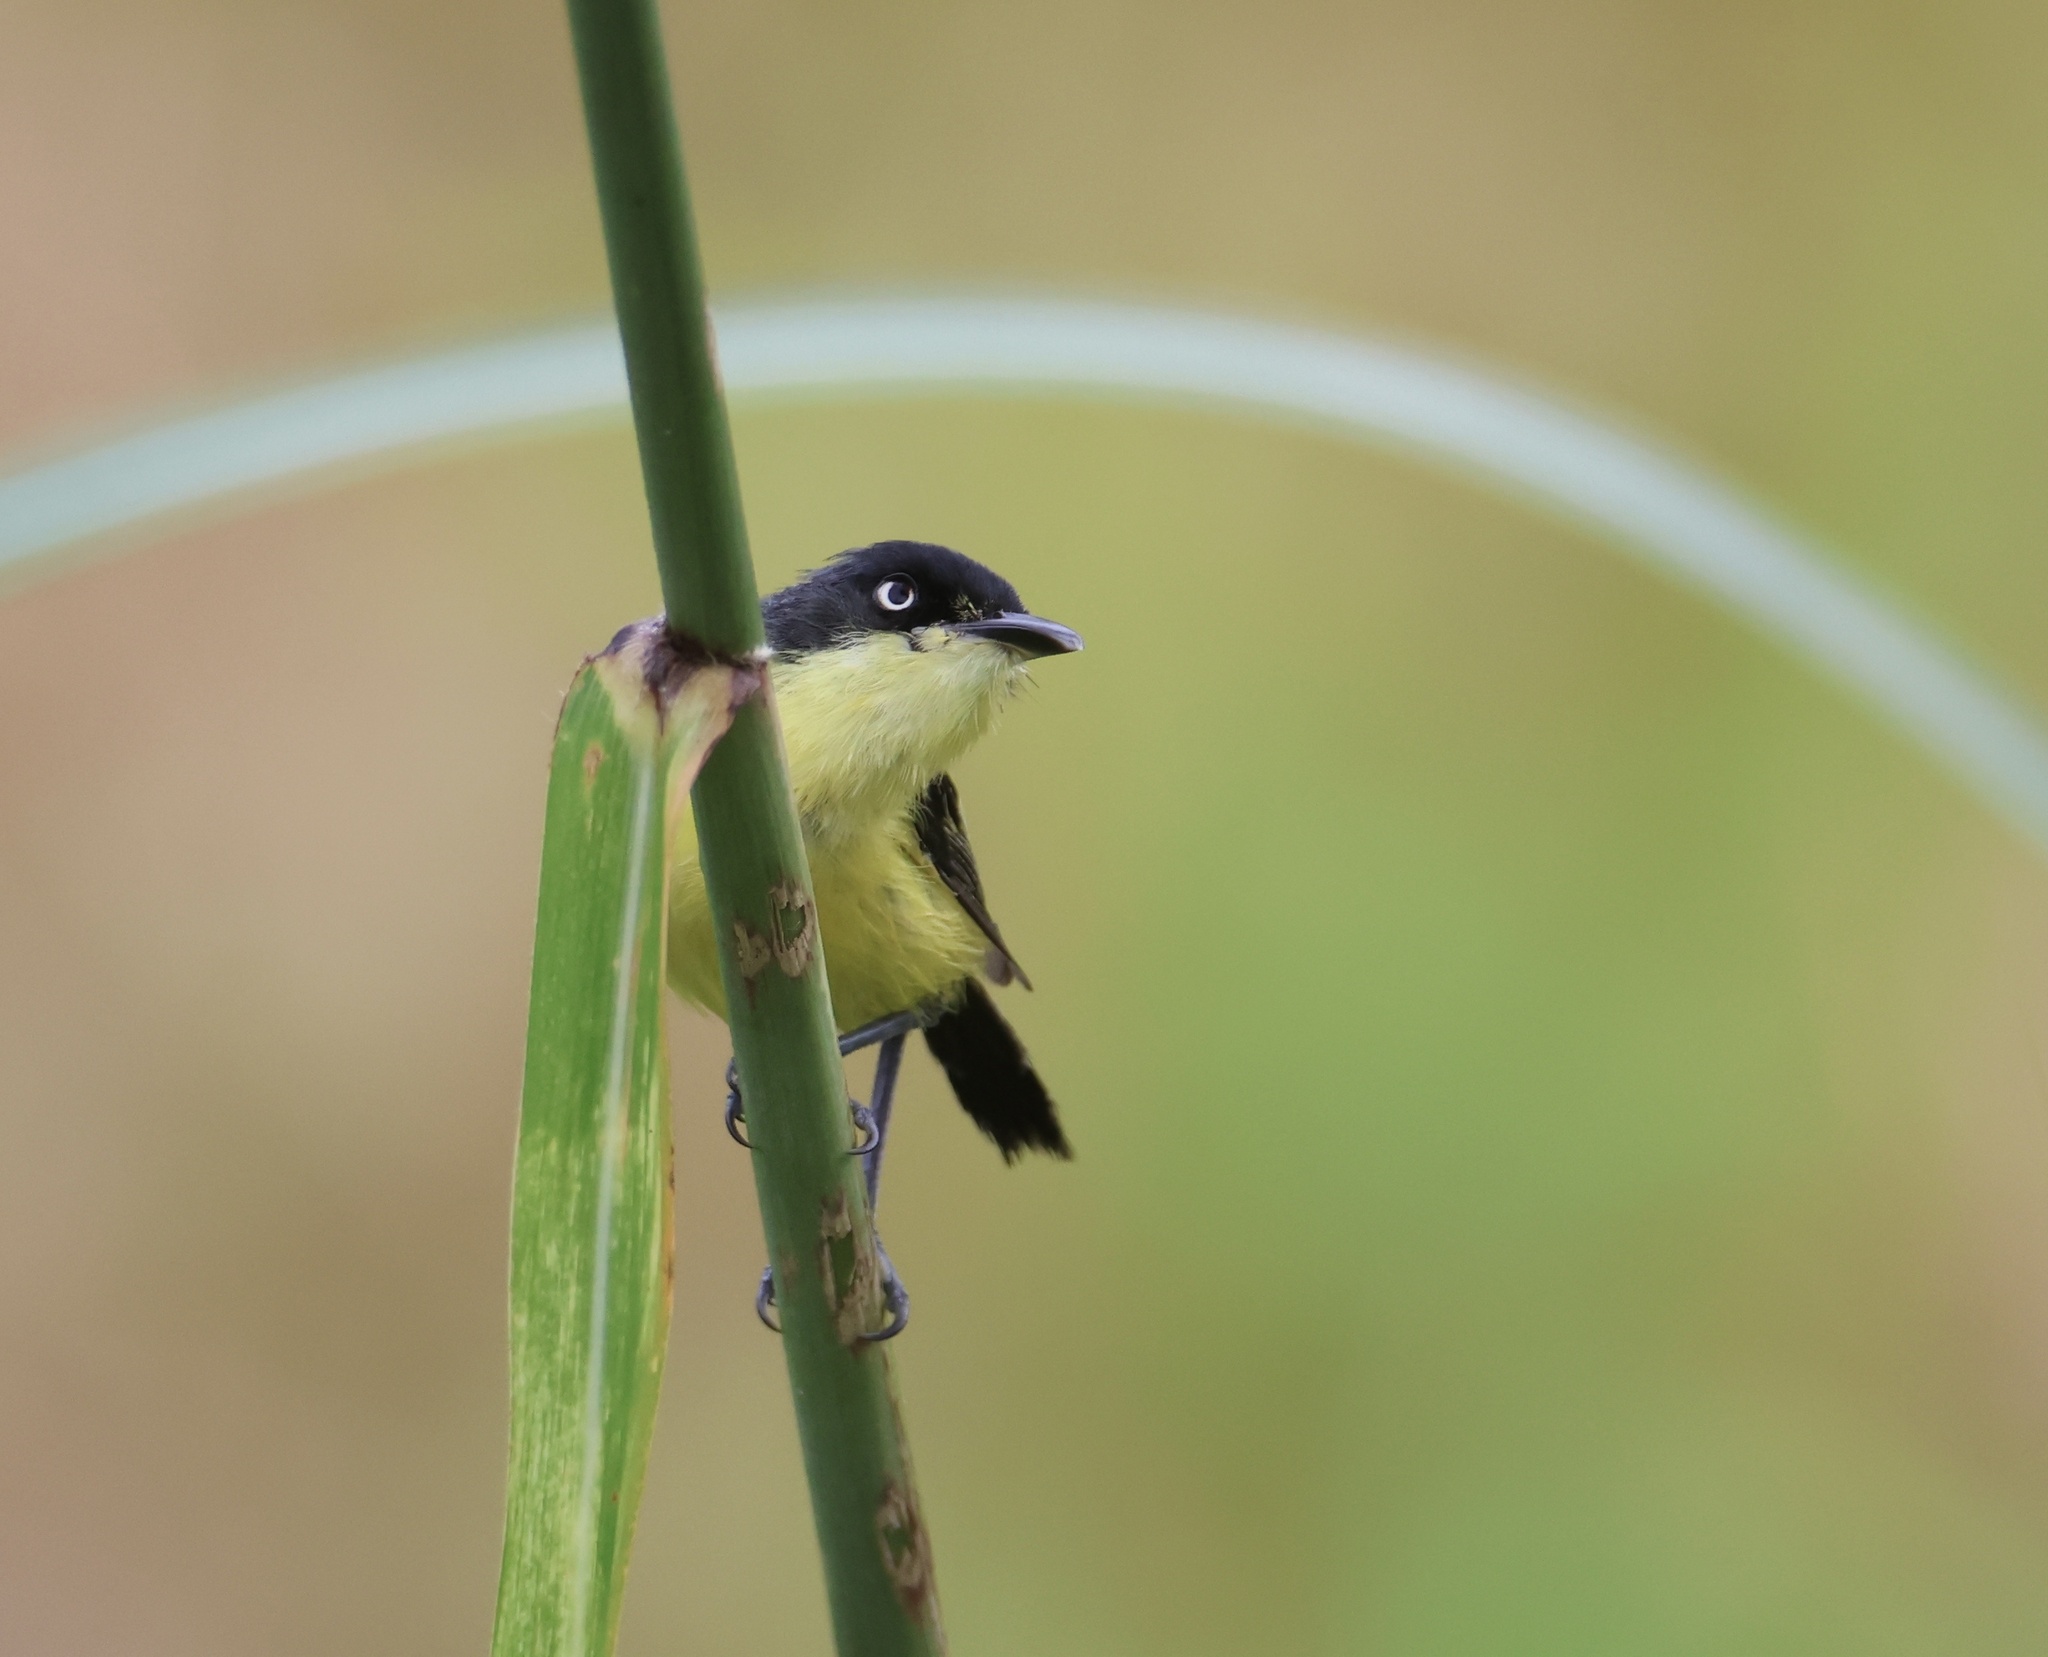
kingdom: Animalia
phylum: Chordata
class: Aves
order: Passeriformes
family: Tyrannidae
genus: Todirostrum
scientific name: Todirostrum cinereum
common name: Common tody-flycatcher
